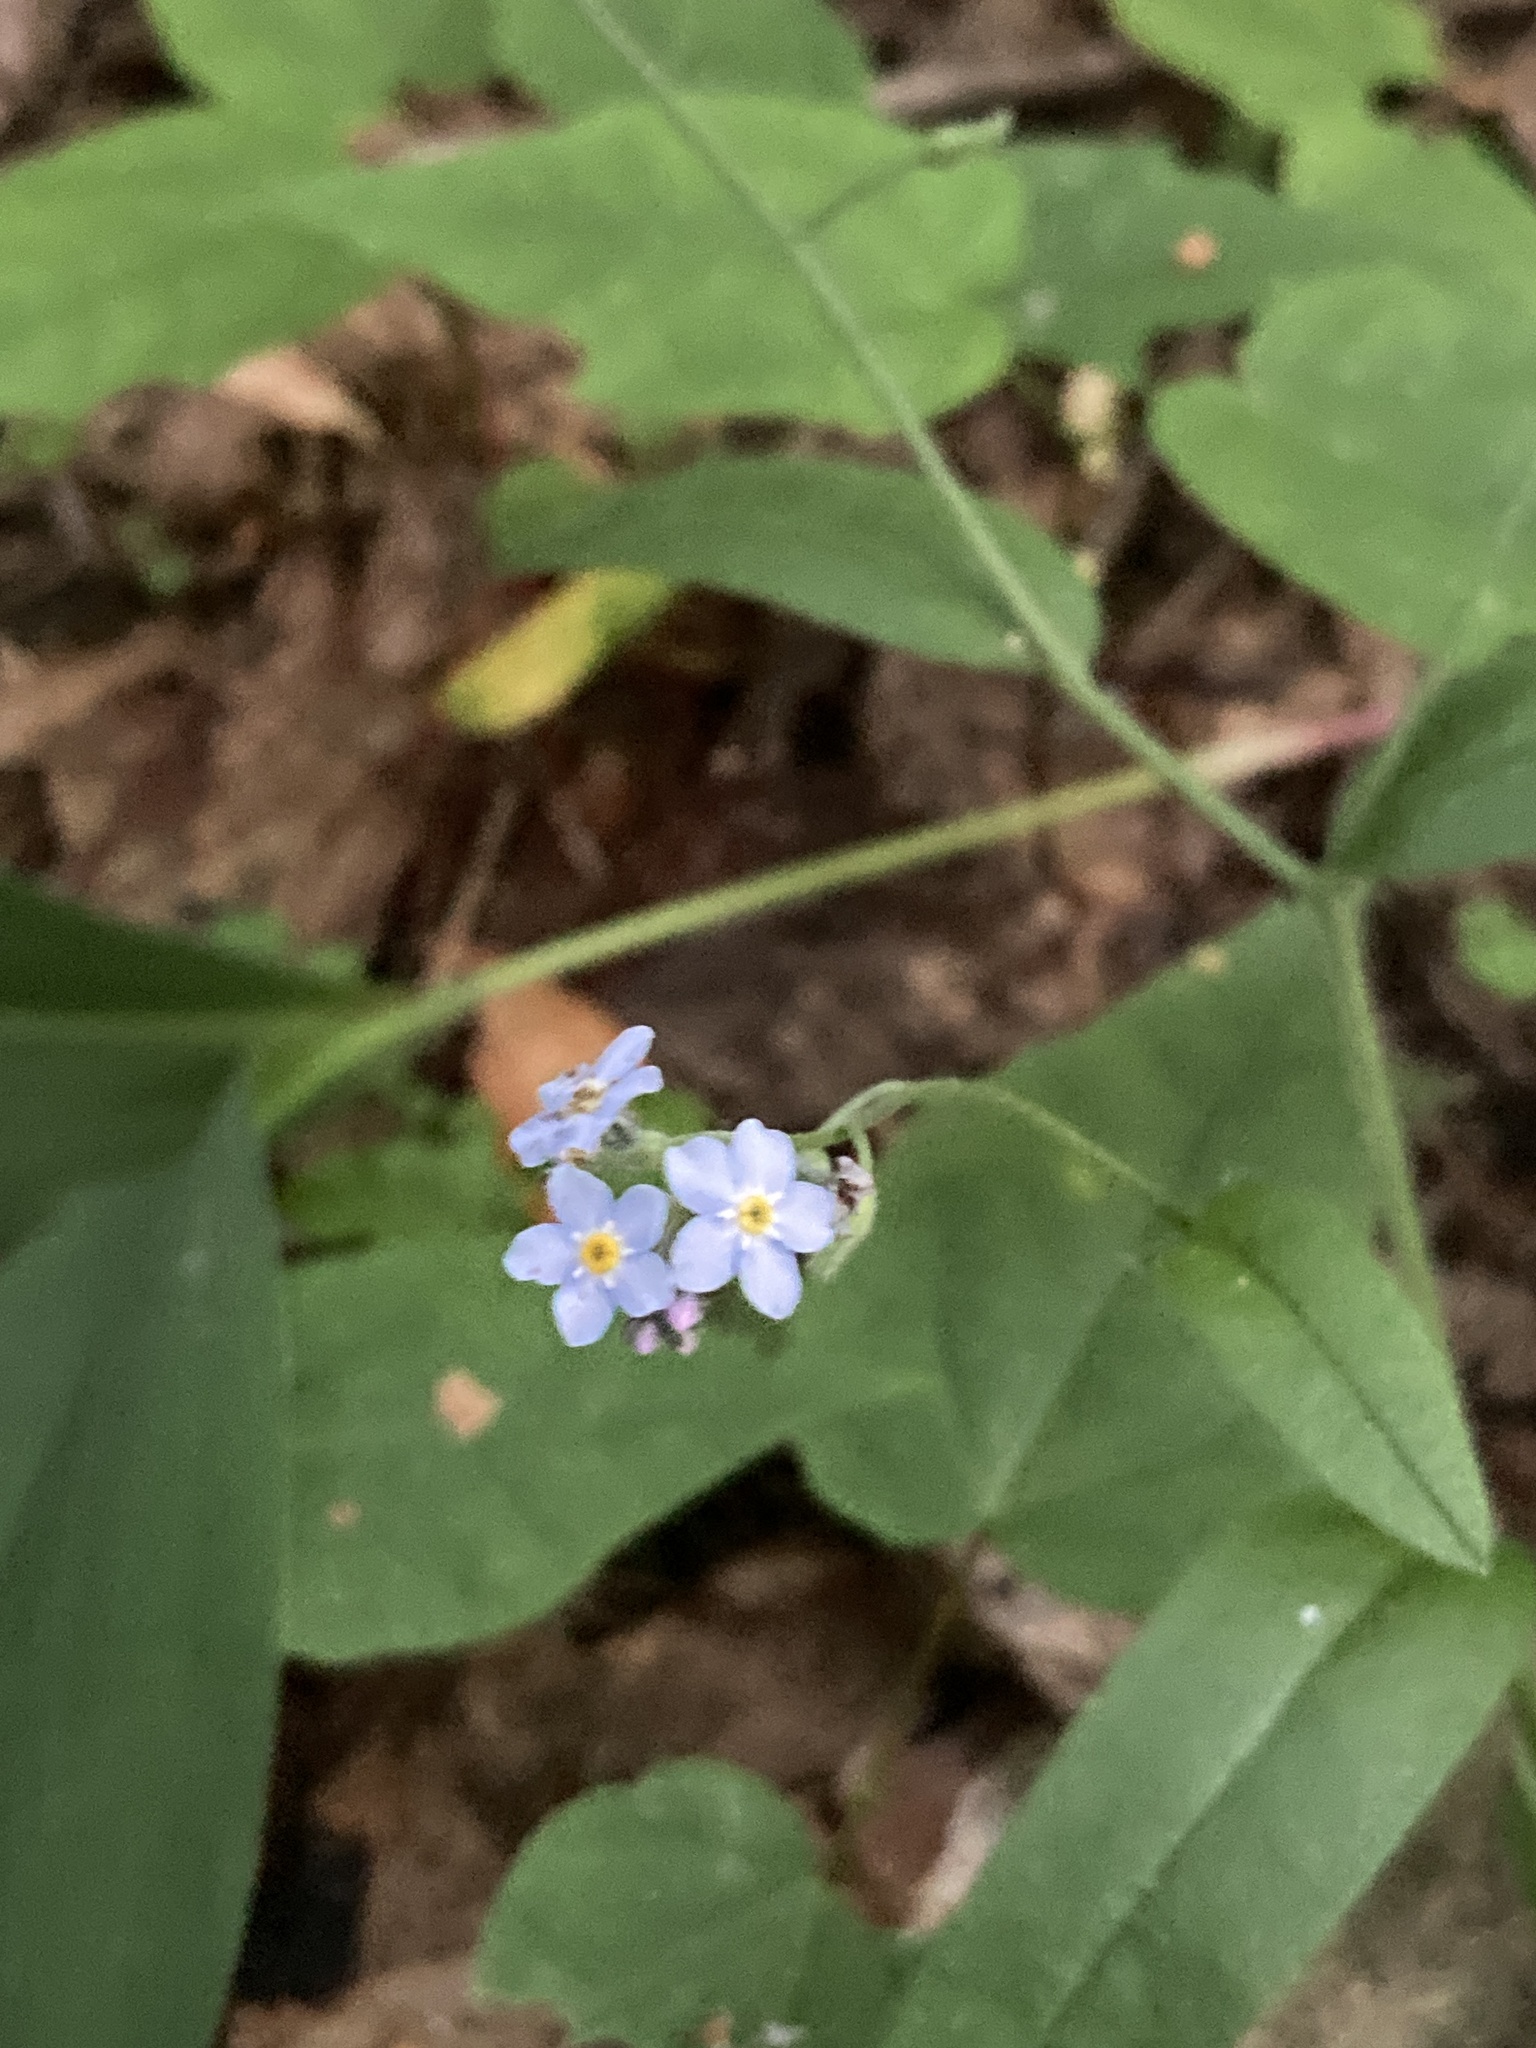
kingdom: Plantae
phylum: Tracheophyta
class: Magnoliopsida
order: Boraginales
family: Boraginaceae
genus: Myosotis
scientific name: Myosotis sylvatica
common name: Wood forget-me-not
